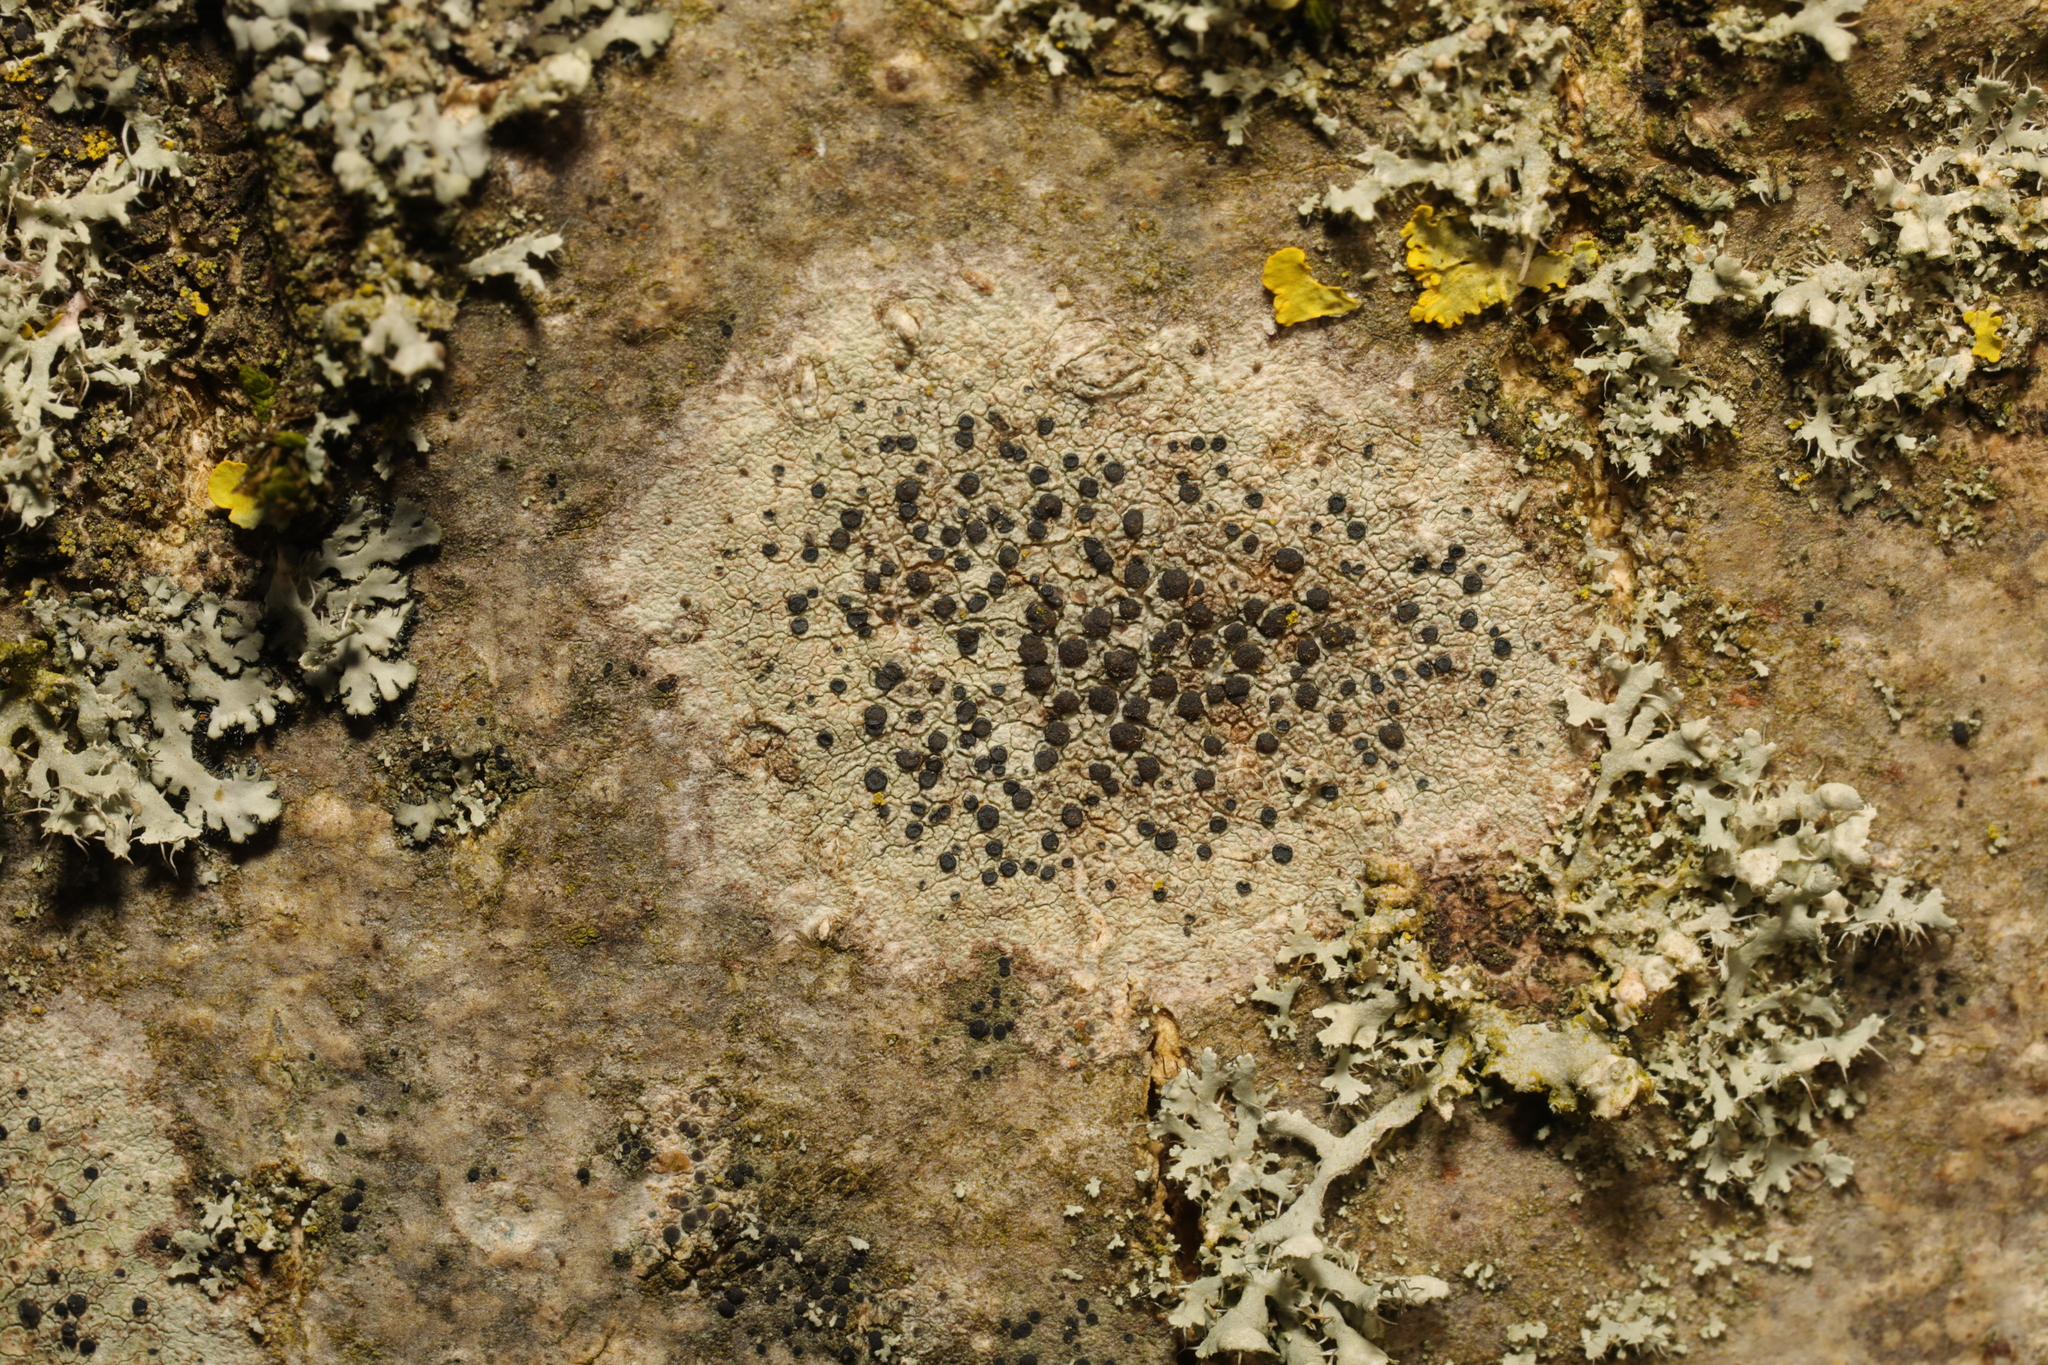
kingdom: Fungi
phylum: Ascomycota
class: Lecanoromycetes
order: Lecanorales
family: Lecanoraceae
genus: Lecidella
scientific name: Lecidella elaeochroma
